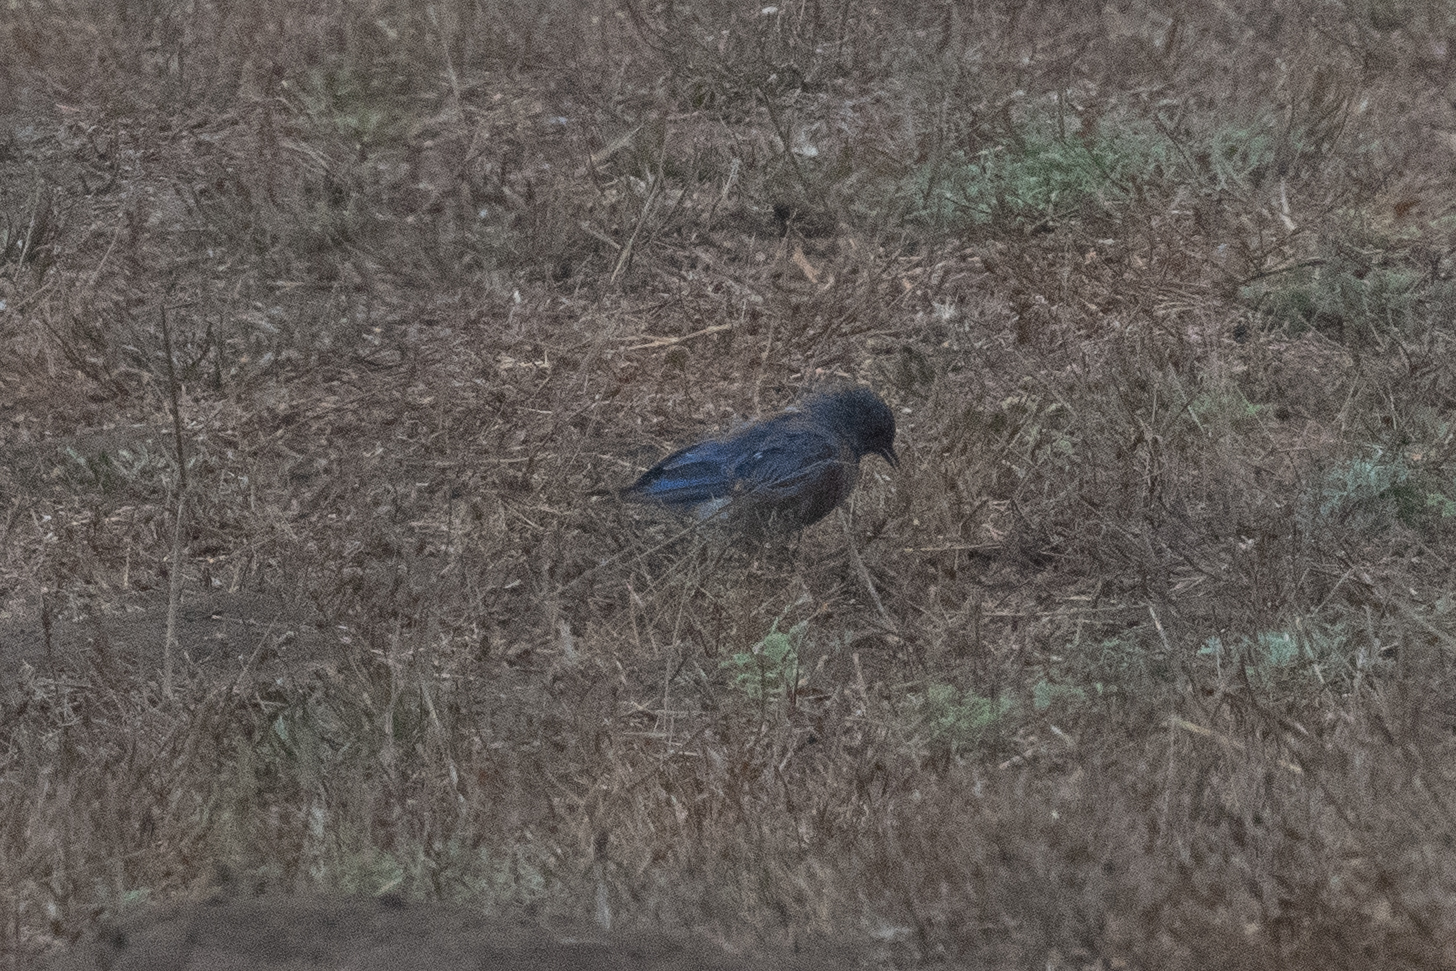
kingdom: Animalia
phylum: Chordata
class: Aves
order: Passeriformes
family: Turdidae
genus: Sialia
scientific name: Sialia mexicana
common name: Western bluebird
